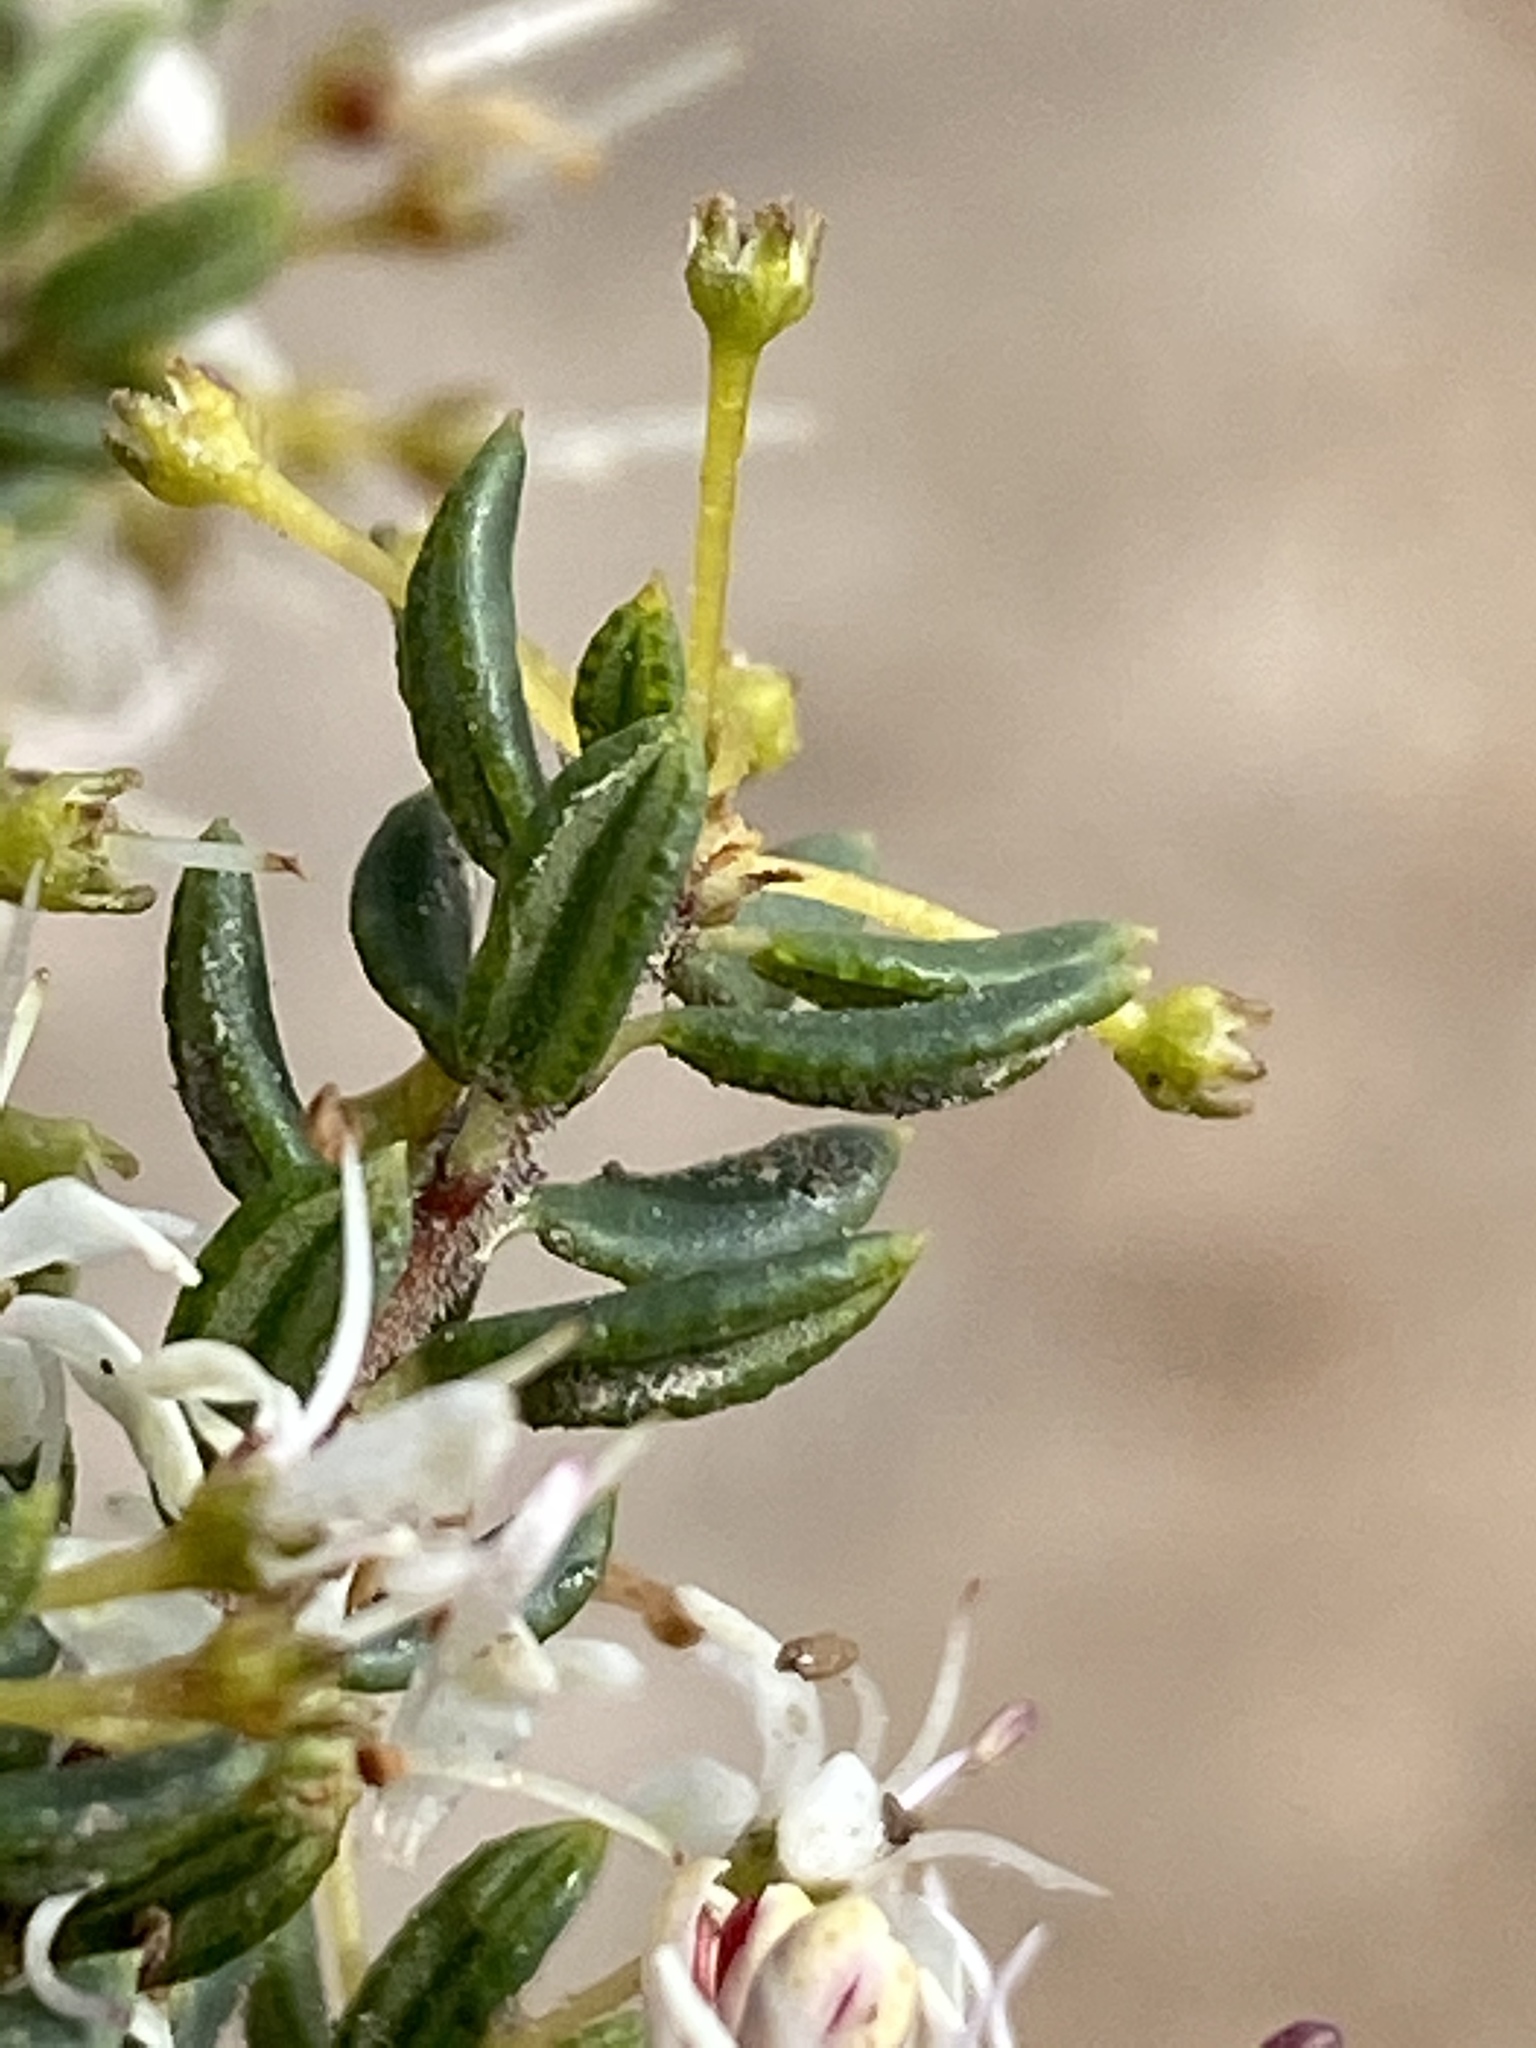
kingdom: Plantae
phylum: Tracheophyta
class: Magnoliopsida
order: Sapindales
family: Rutaceae
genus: Agathosma
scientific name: Agathosma mundtii
